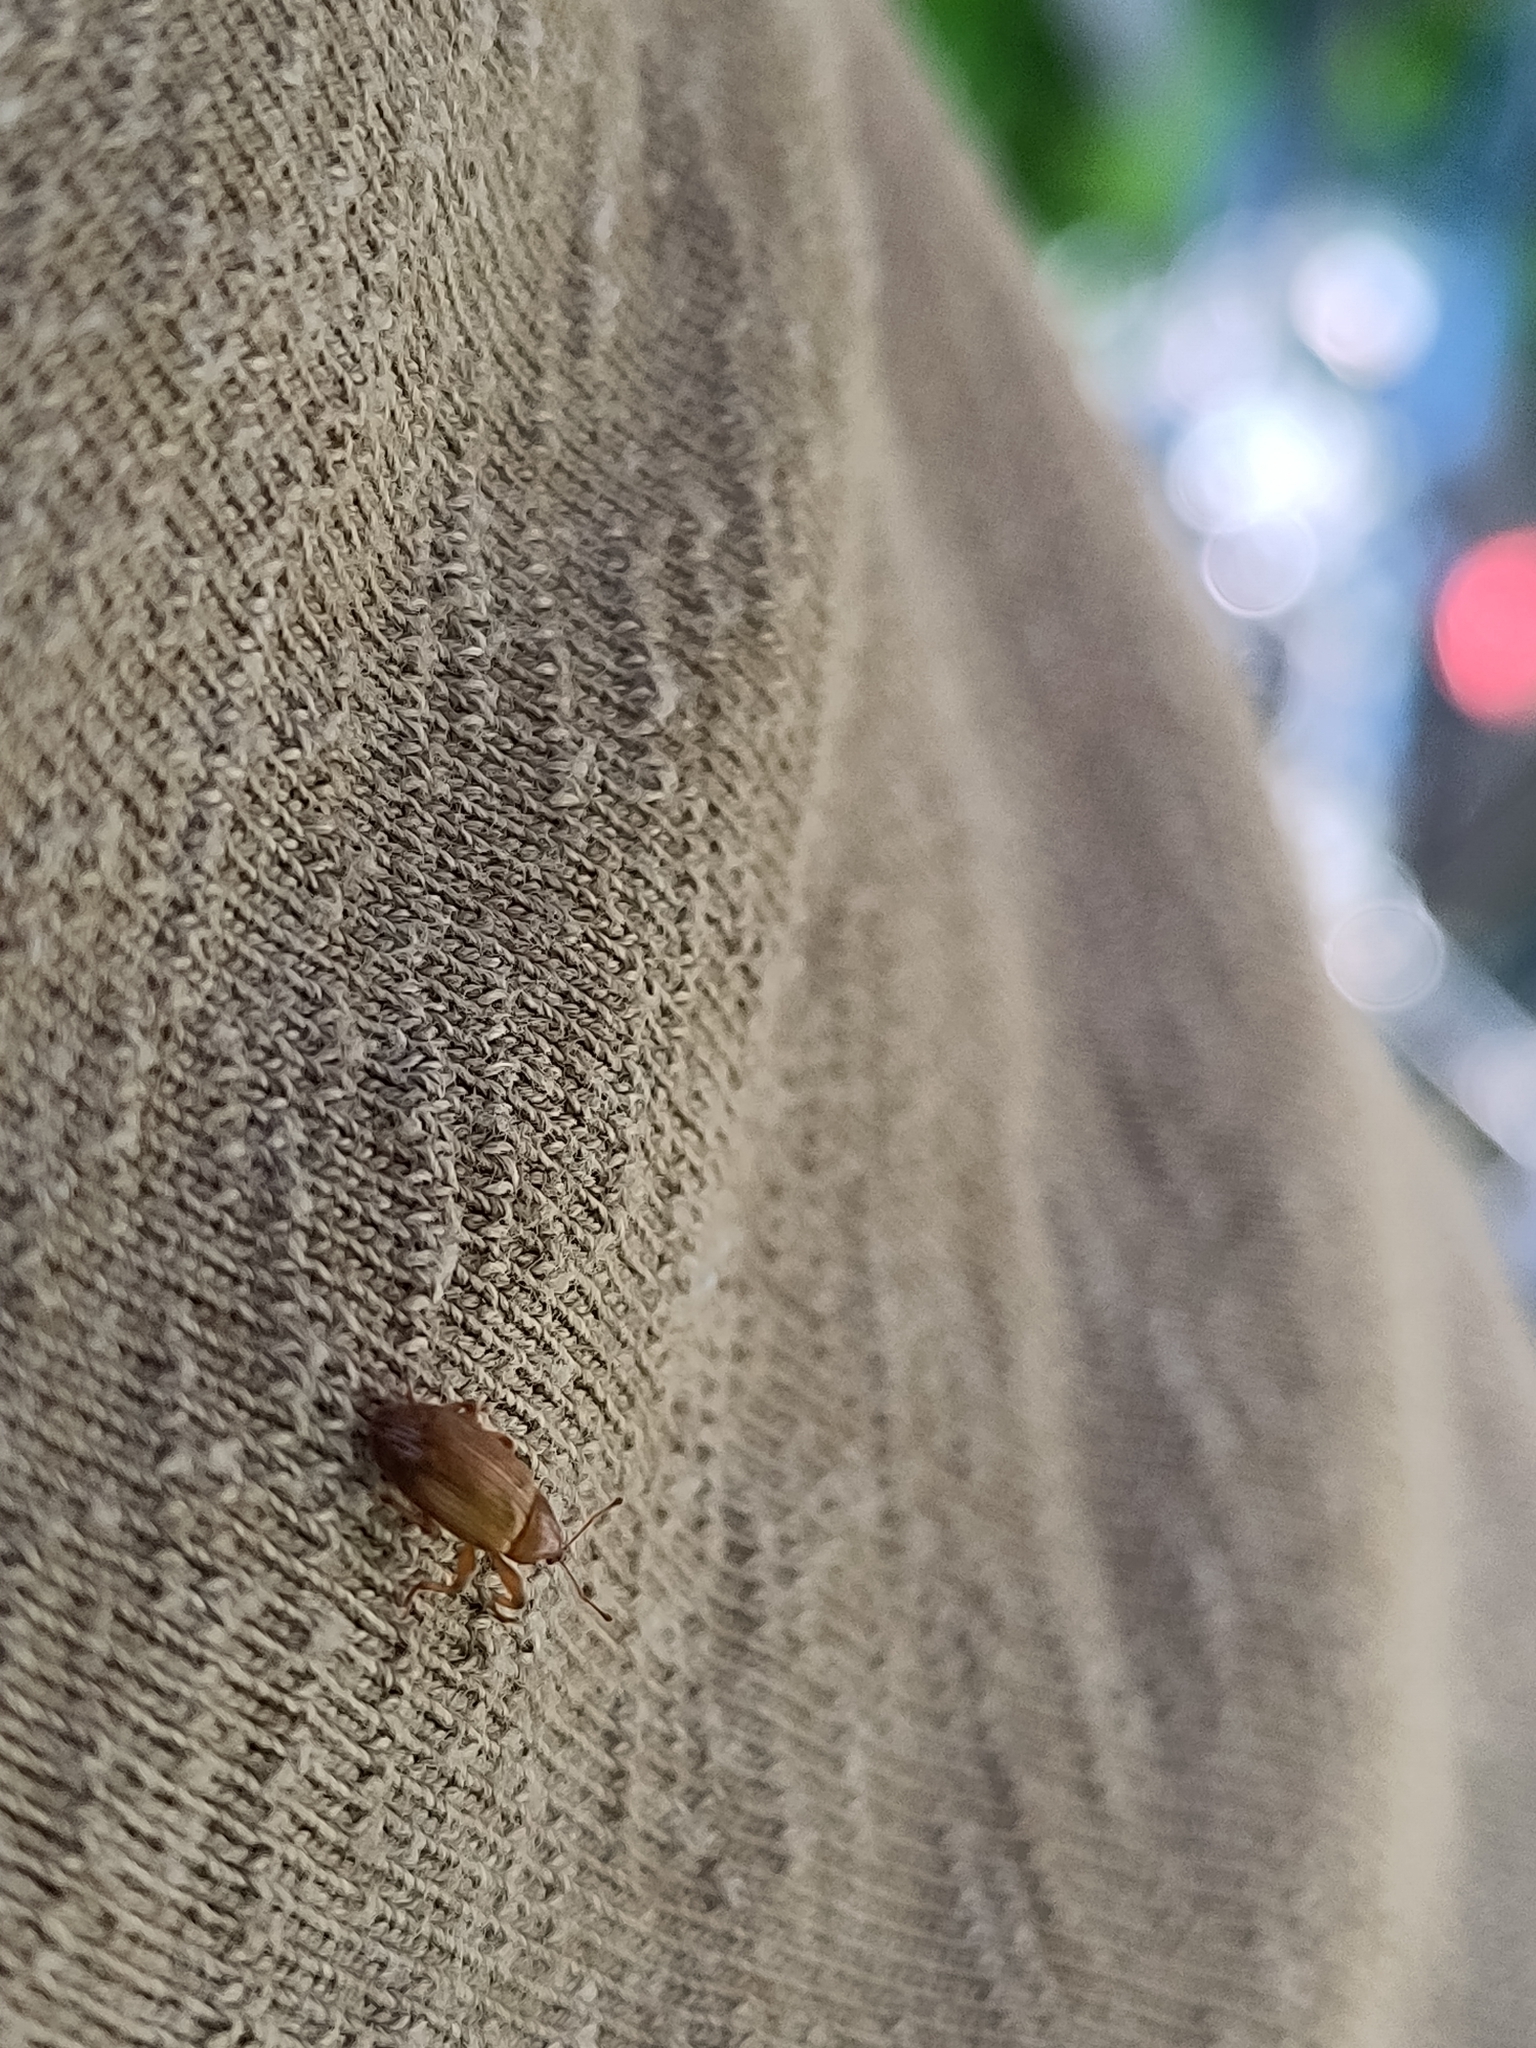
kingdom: Animalia
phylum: Arthropoda
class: Insecta
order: Coleoptera
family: Curculionidae
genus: Dorytomus
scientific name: Dorytomus tortrix
